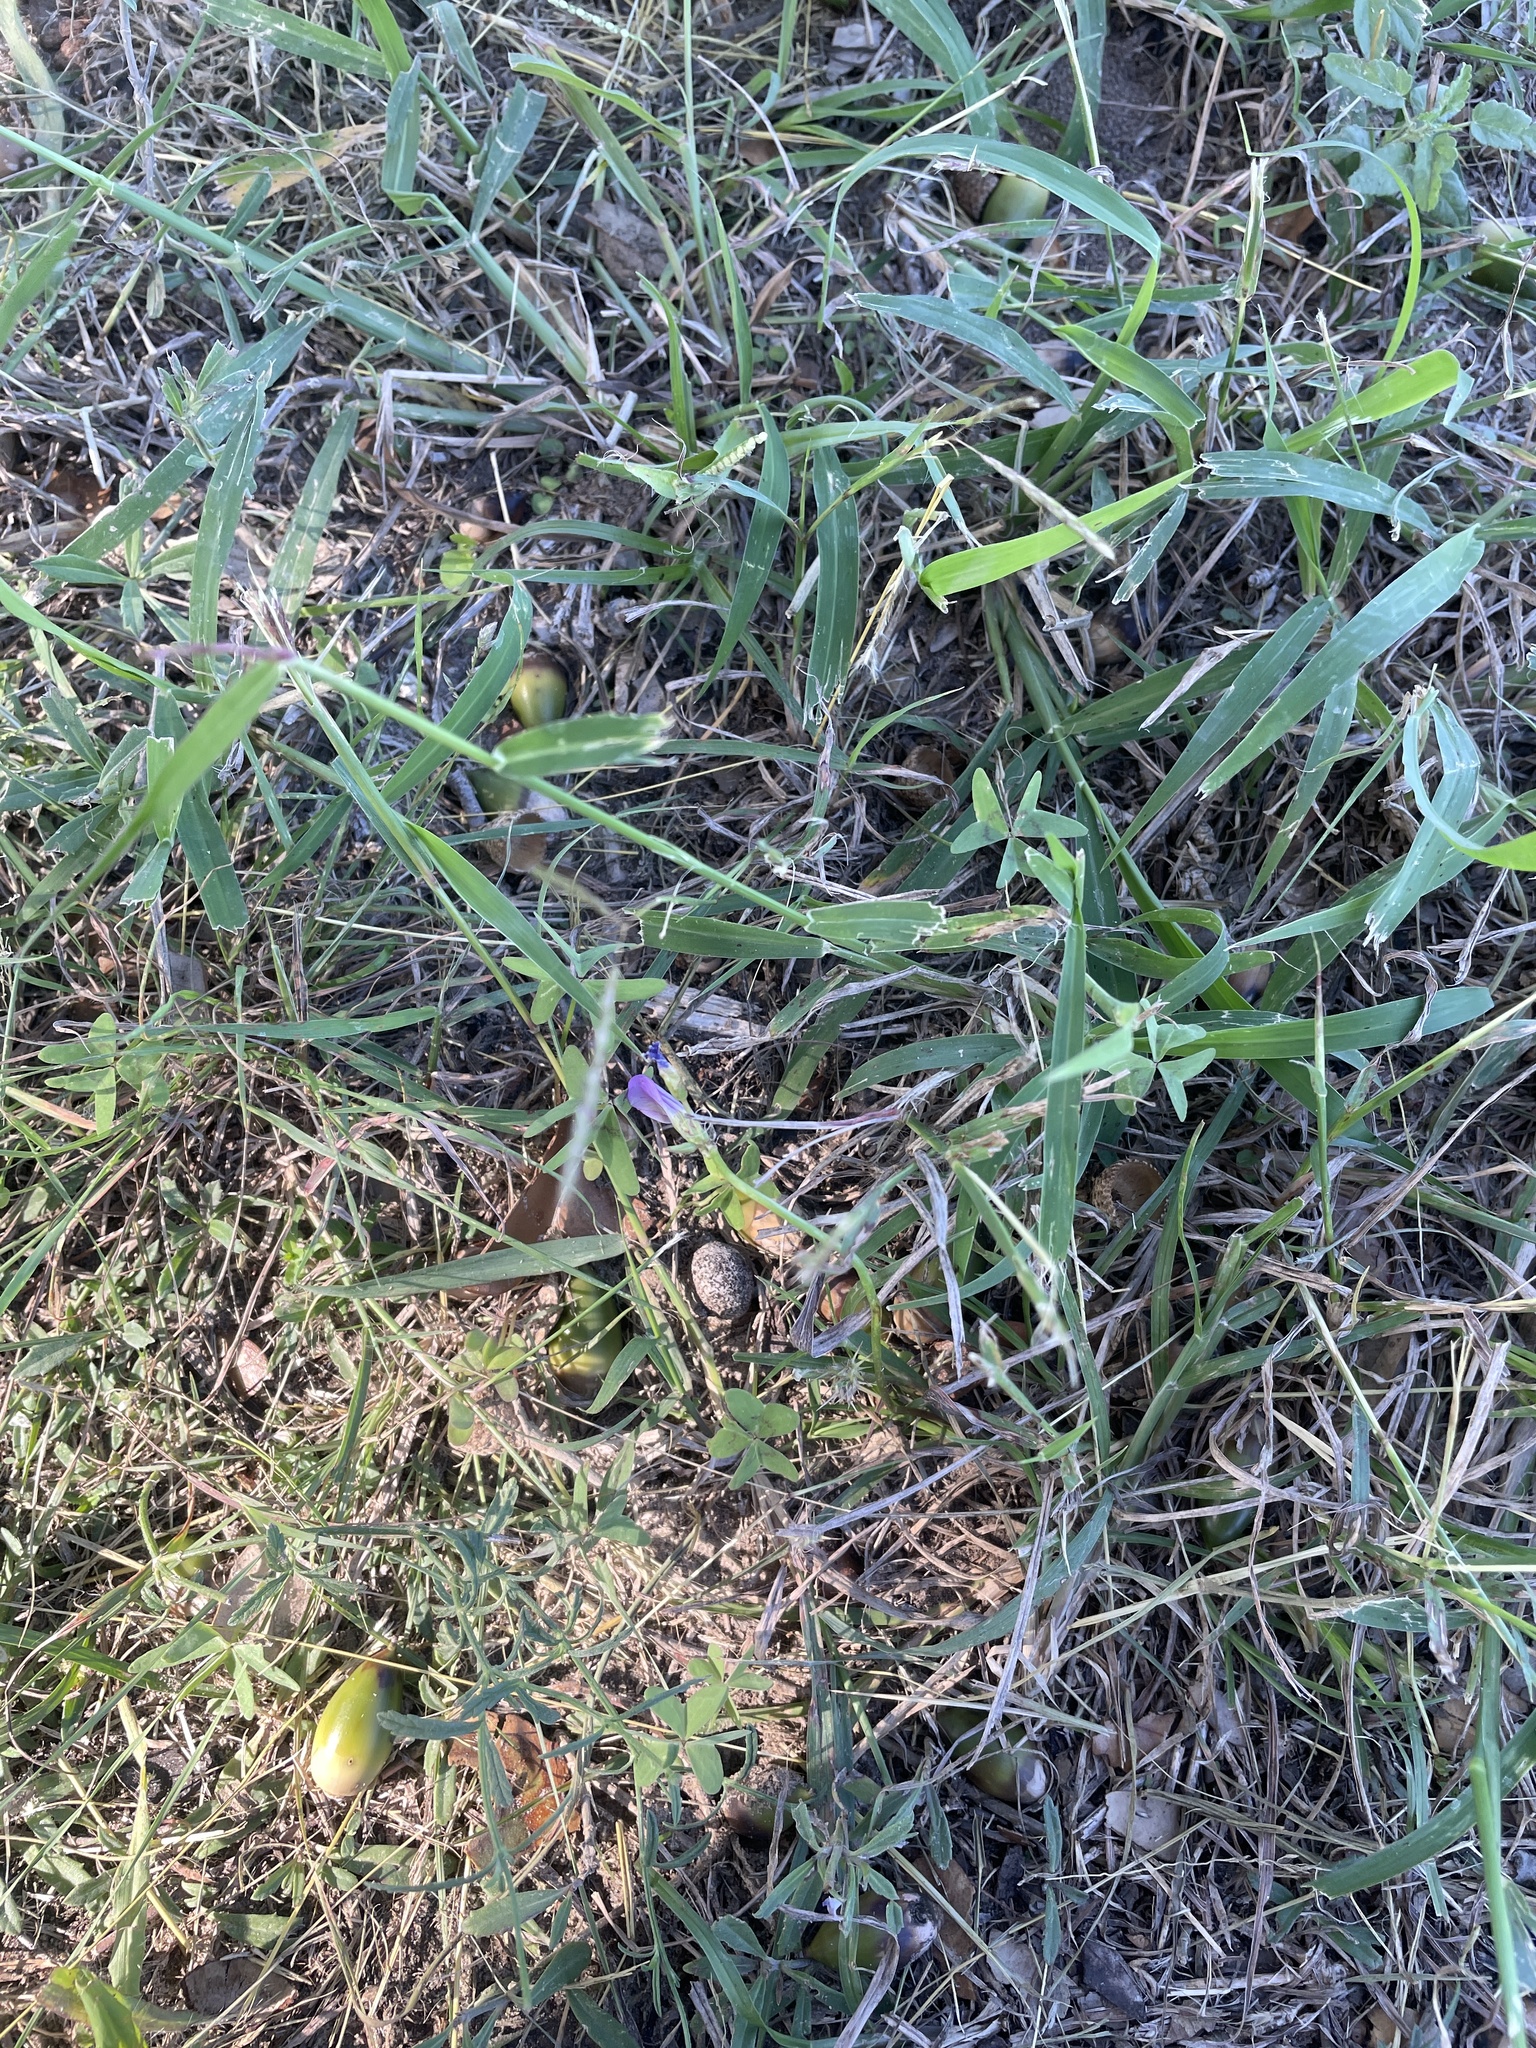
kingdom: Plantae
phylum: Tracheophyta
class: Magnoliopsida
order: Oxalidales
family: Oxalidaceae
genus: Oxalis
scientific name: Oxalis drummondii
